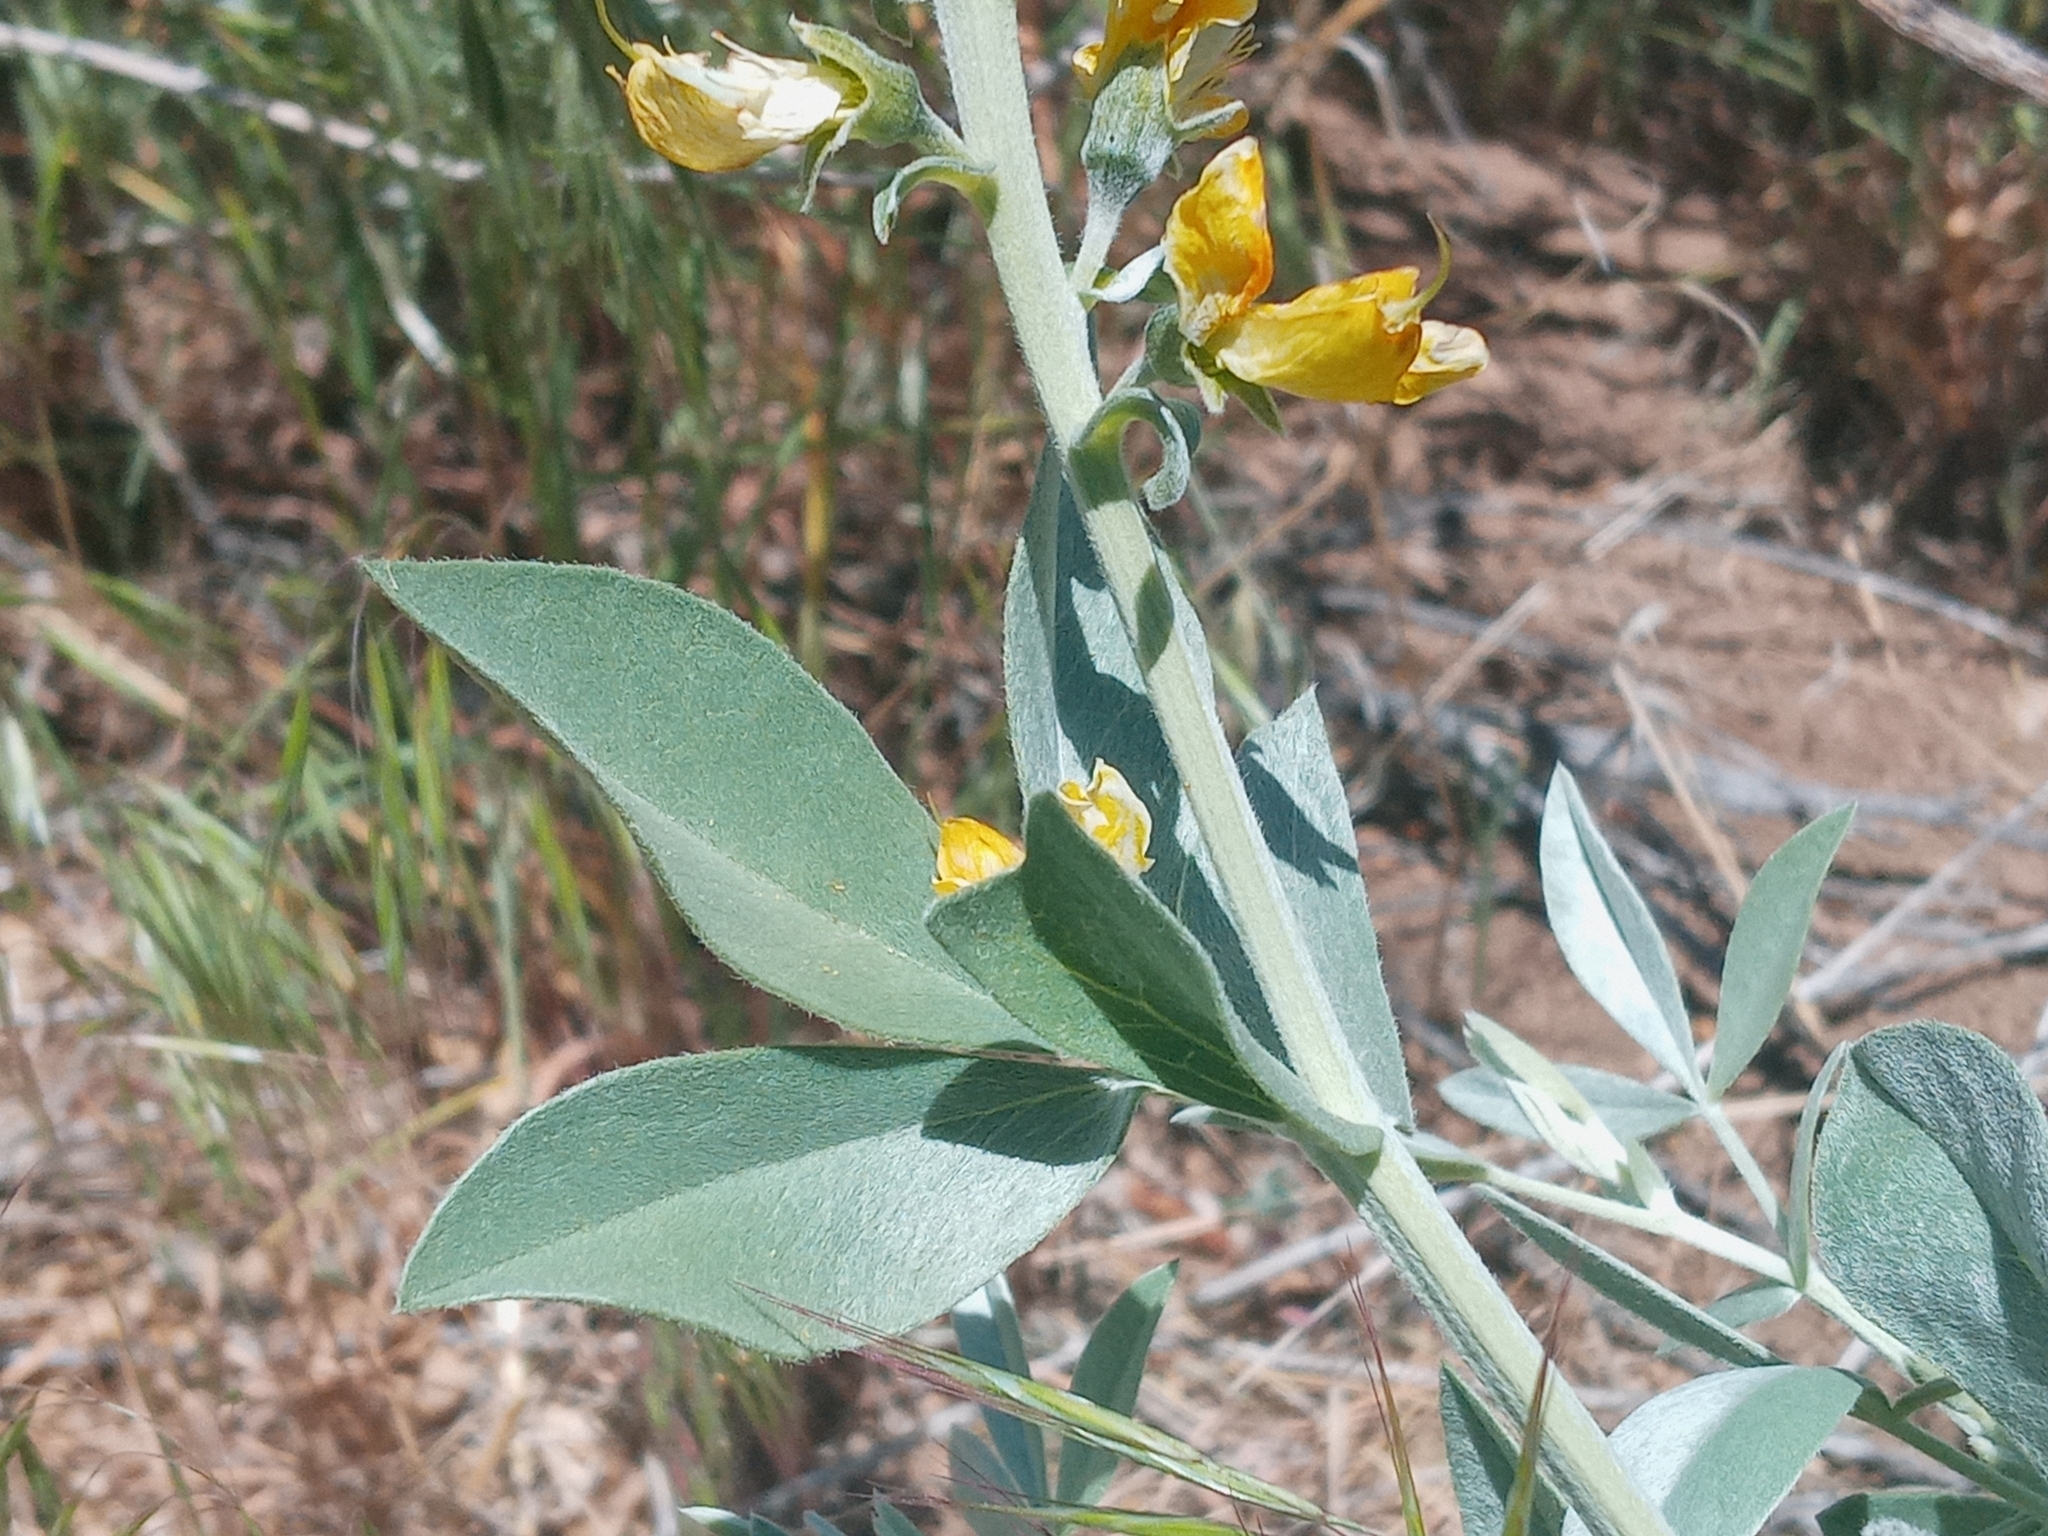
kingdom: Plantae
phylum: Tracheophyta
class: Magnoliopsida
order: Fabales
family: Fabaceae
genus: Thermopsis
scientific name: Thermopsis californica
